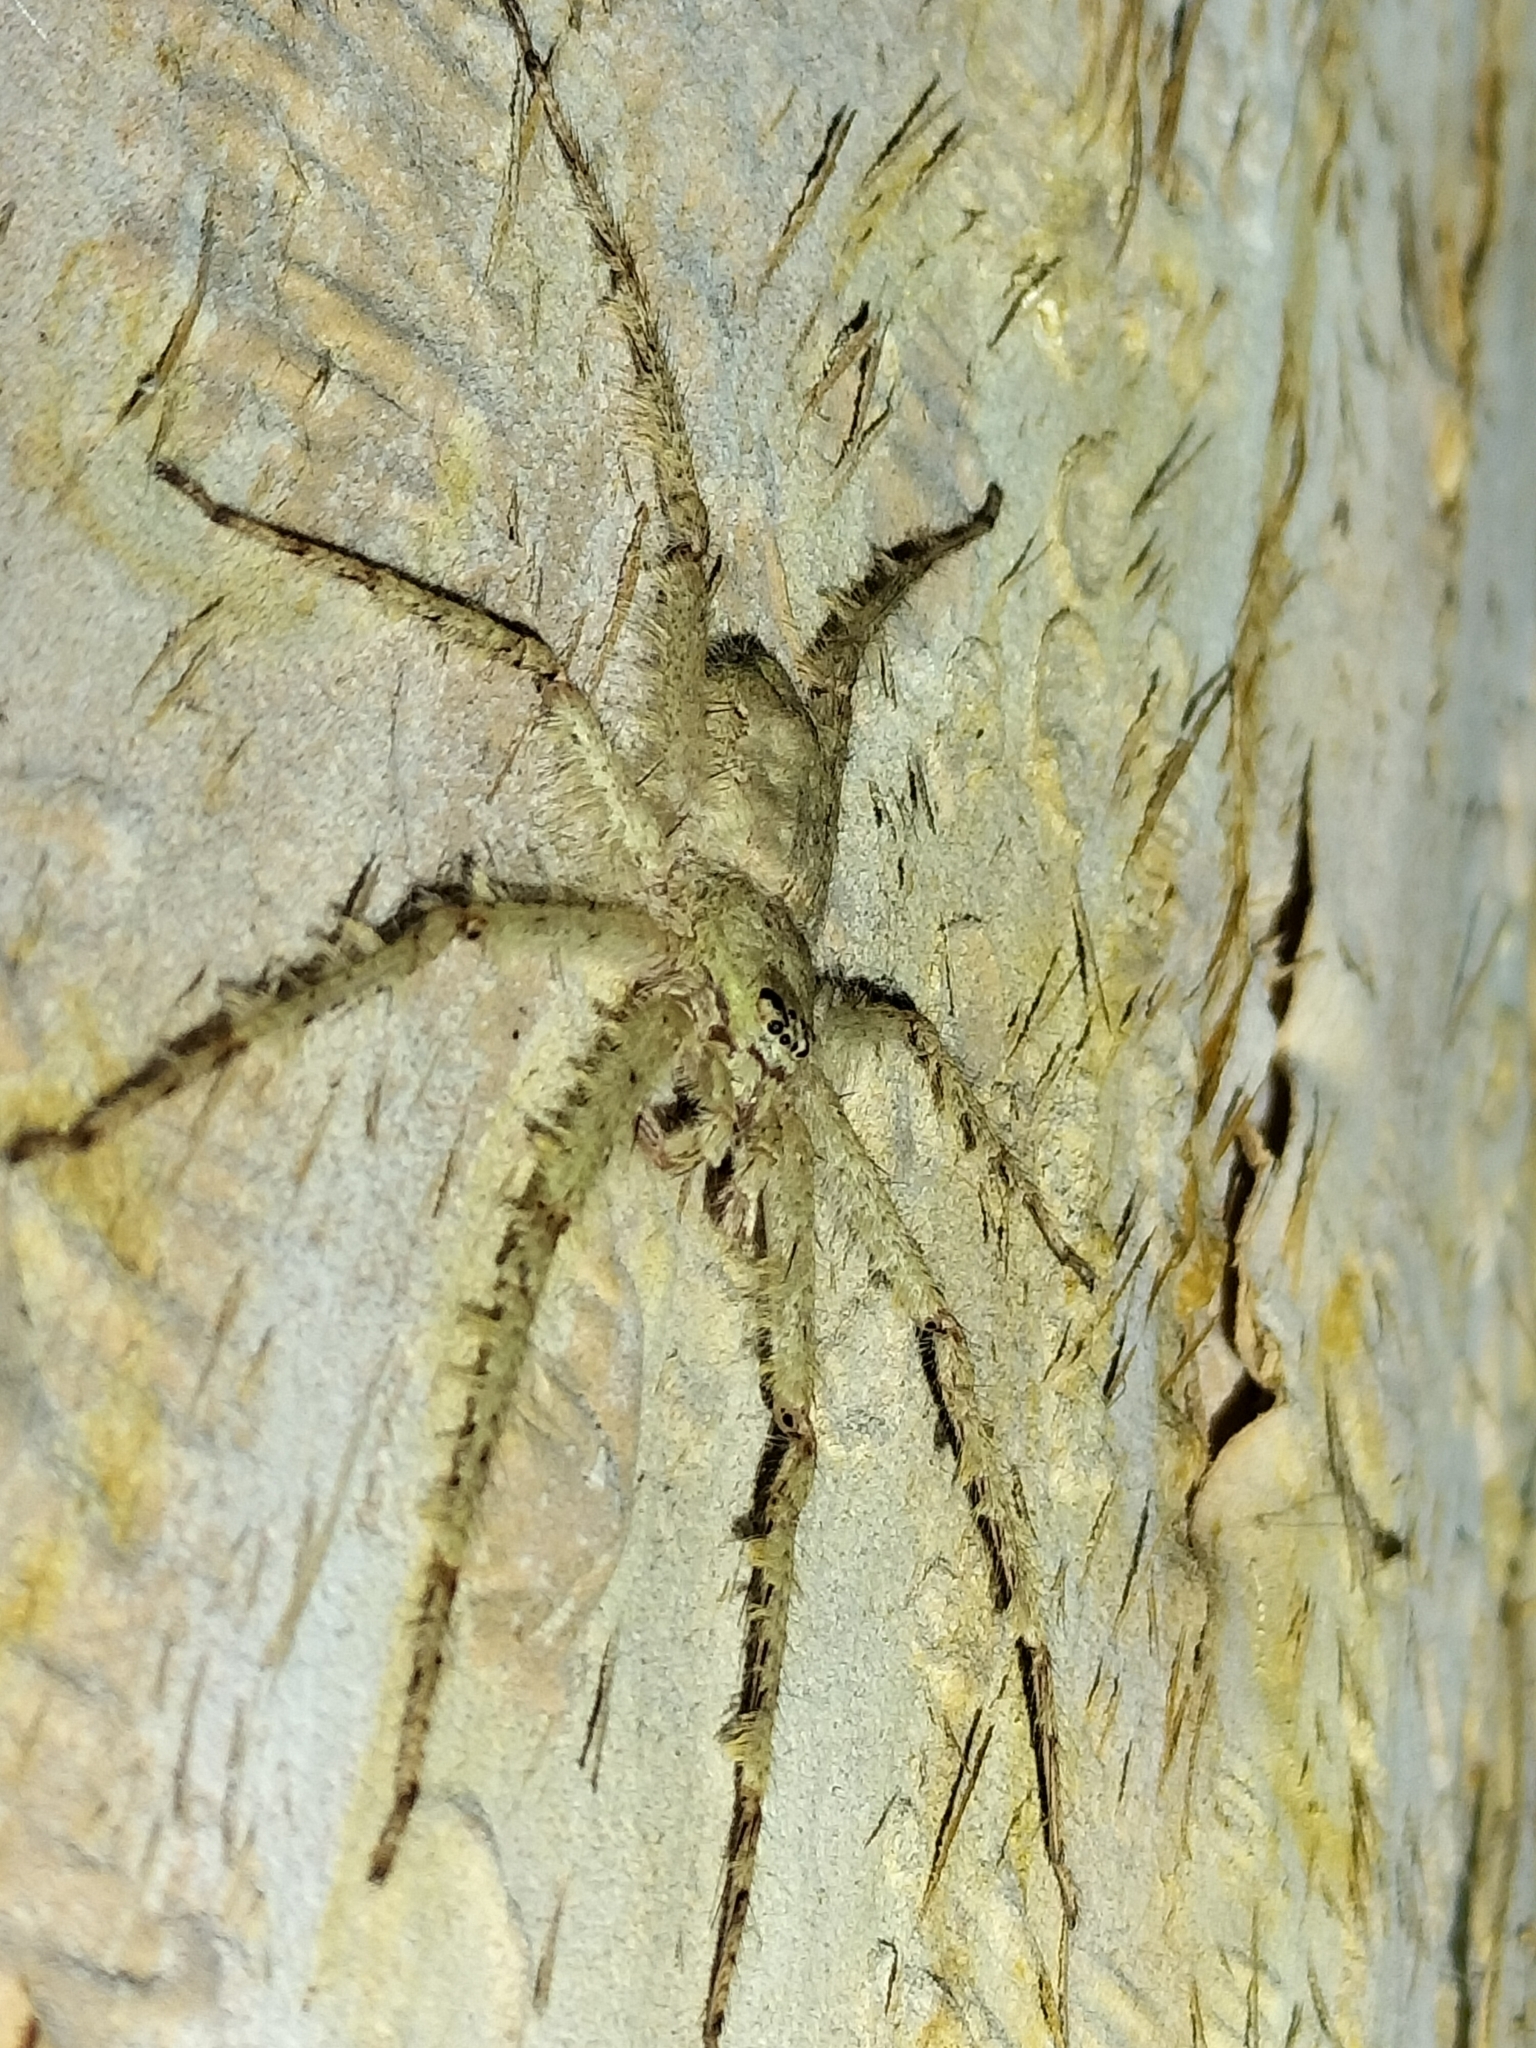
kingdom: Animalia
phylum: Arthropoda
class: Arachnida
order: Araneae
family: Sparassidae
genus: Pandercetes
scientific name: Pandercetes gracilis
